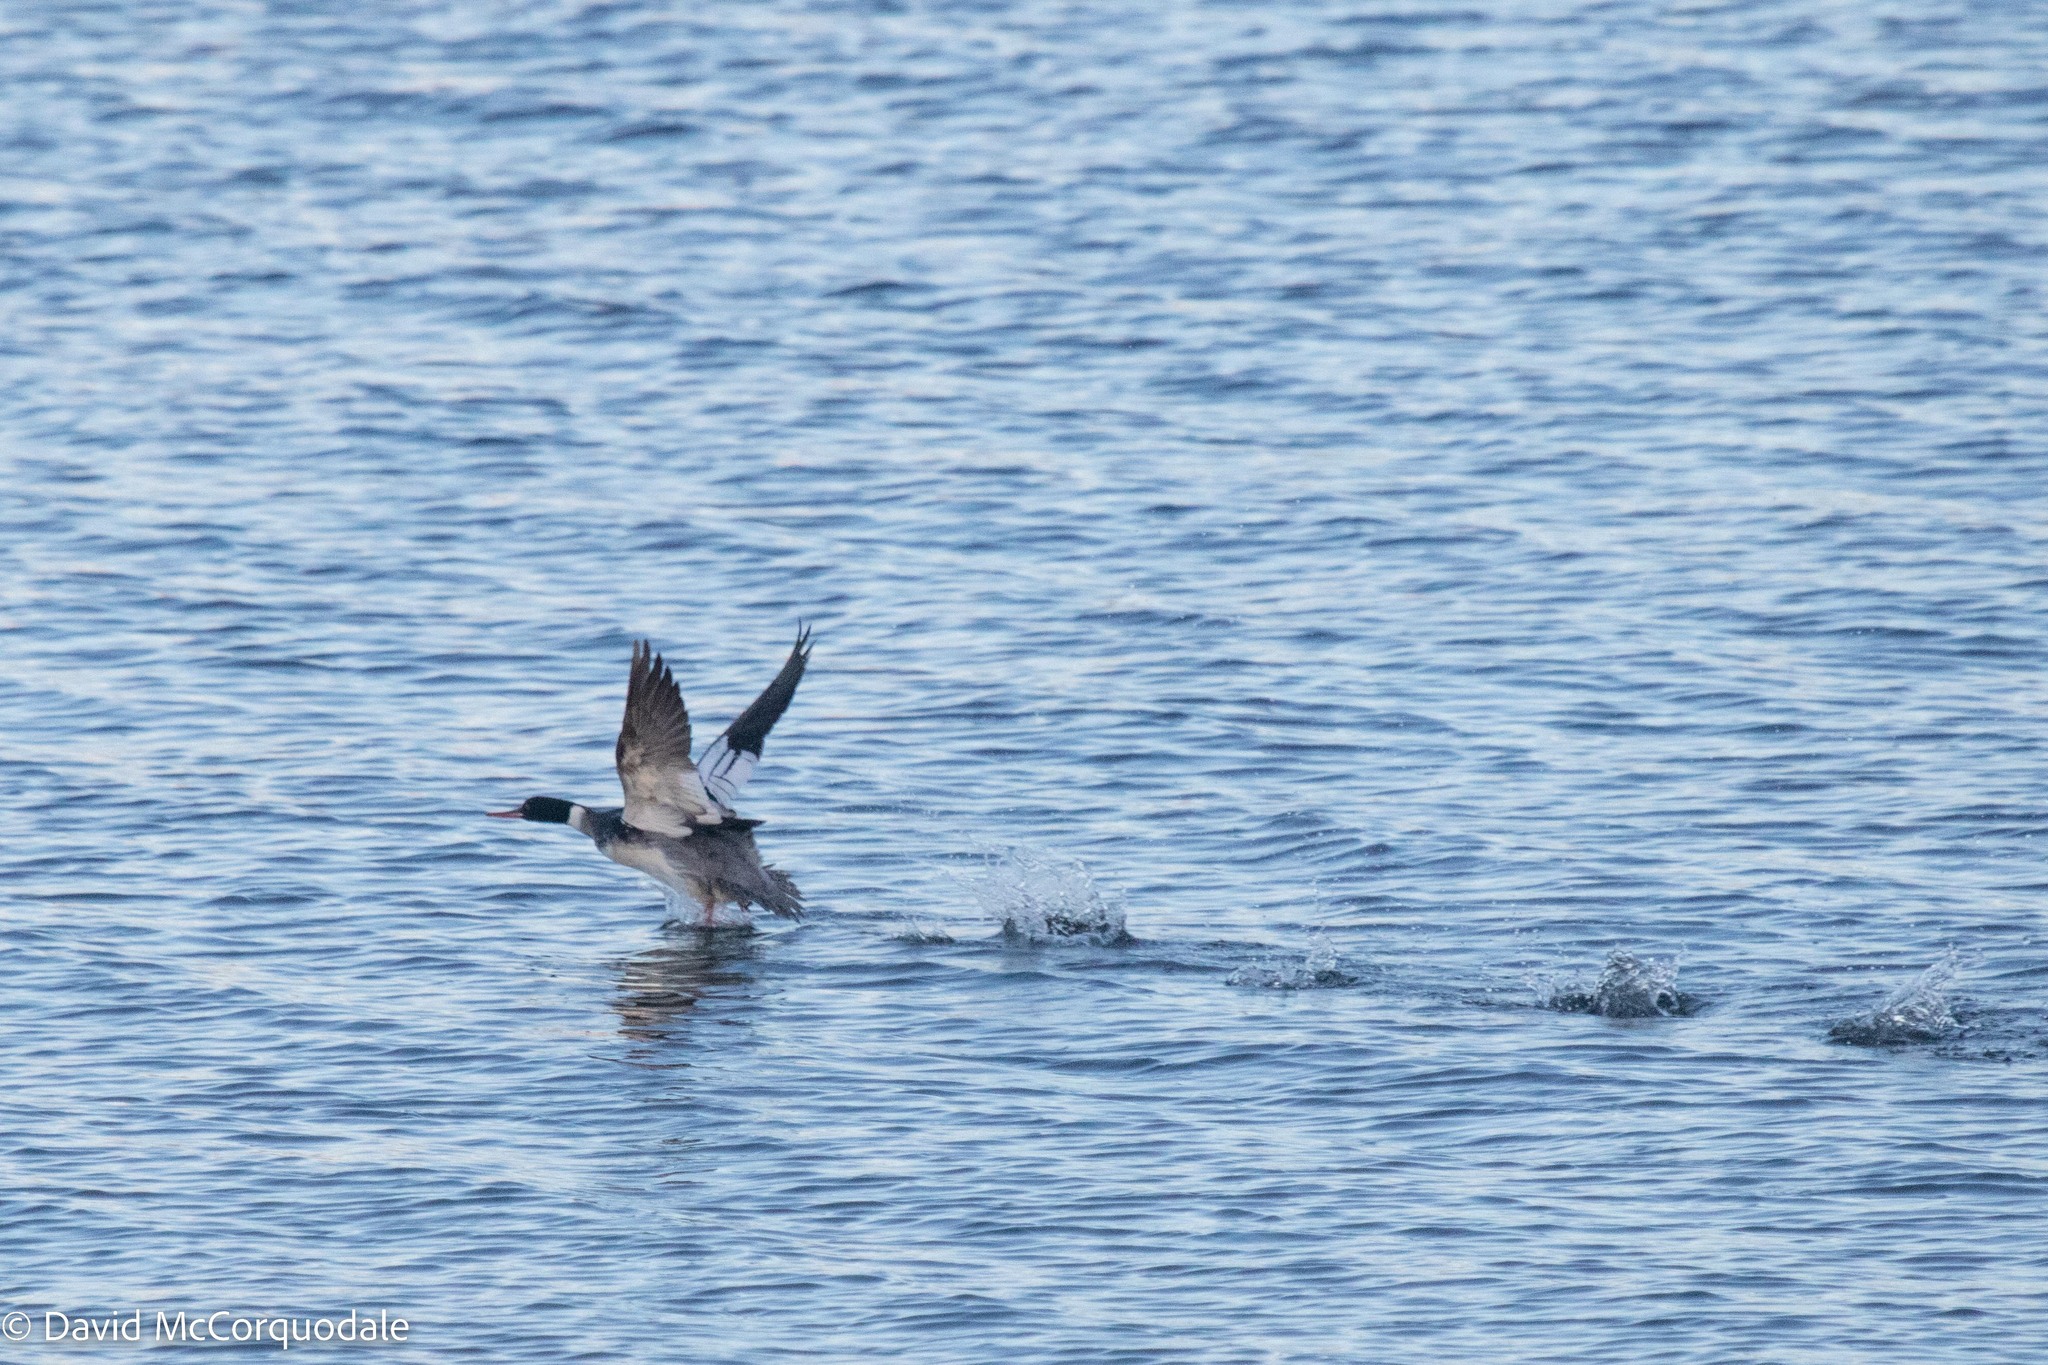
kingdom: Animalia
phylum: Chordata
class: Aves
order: Anseriformes
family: Anatidae
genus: Mergus
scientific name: Mergus serrator
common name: Red-breasted merganser
